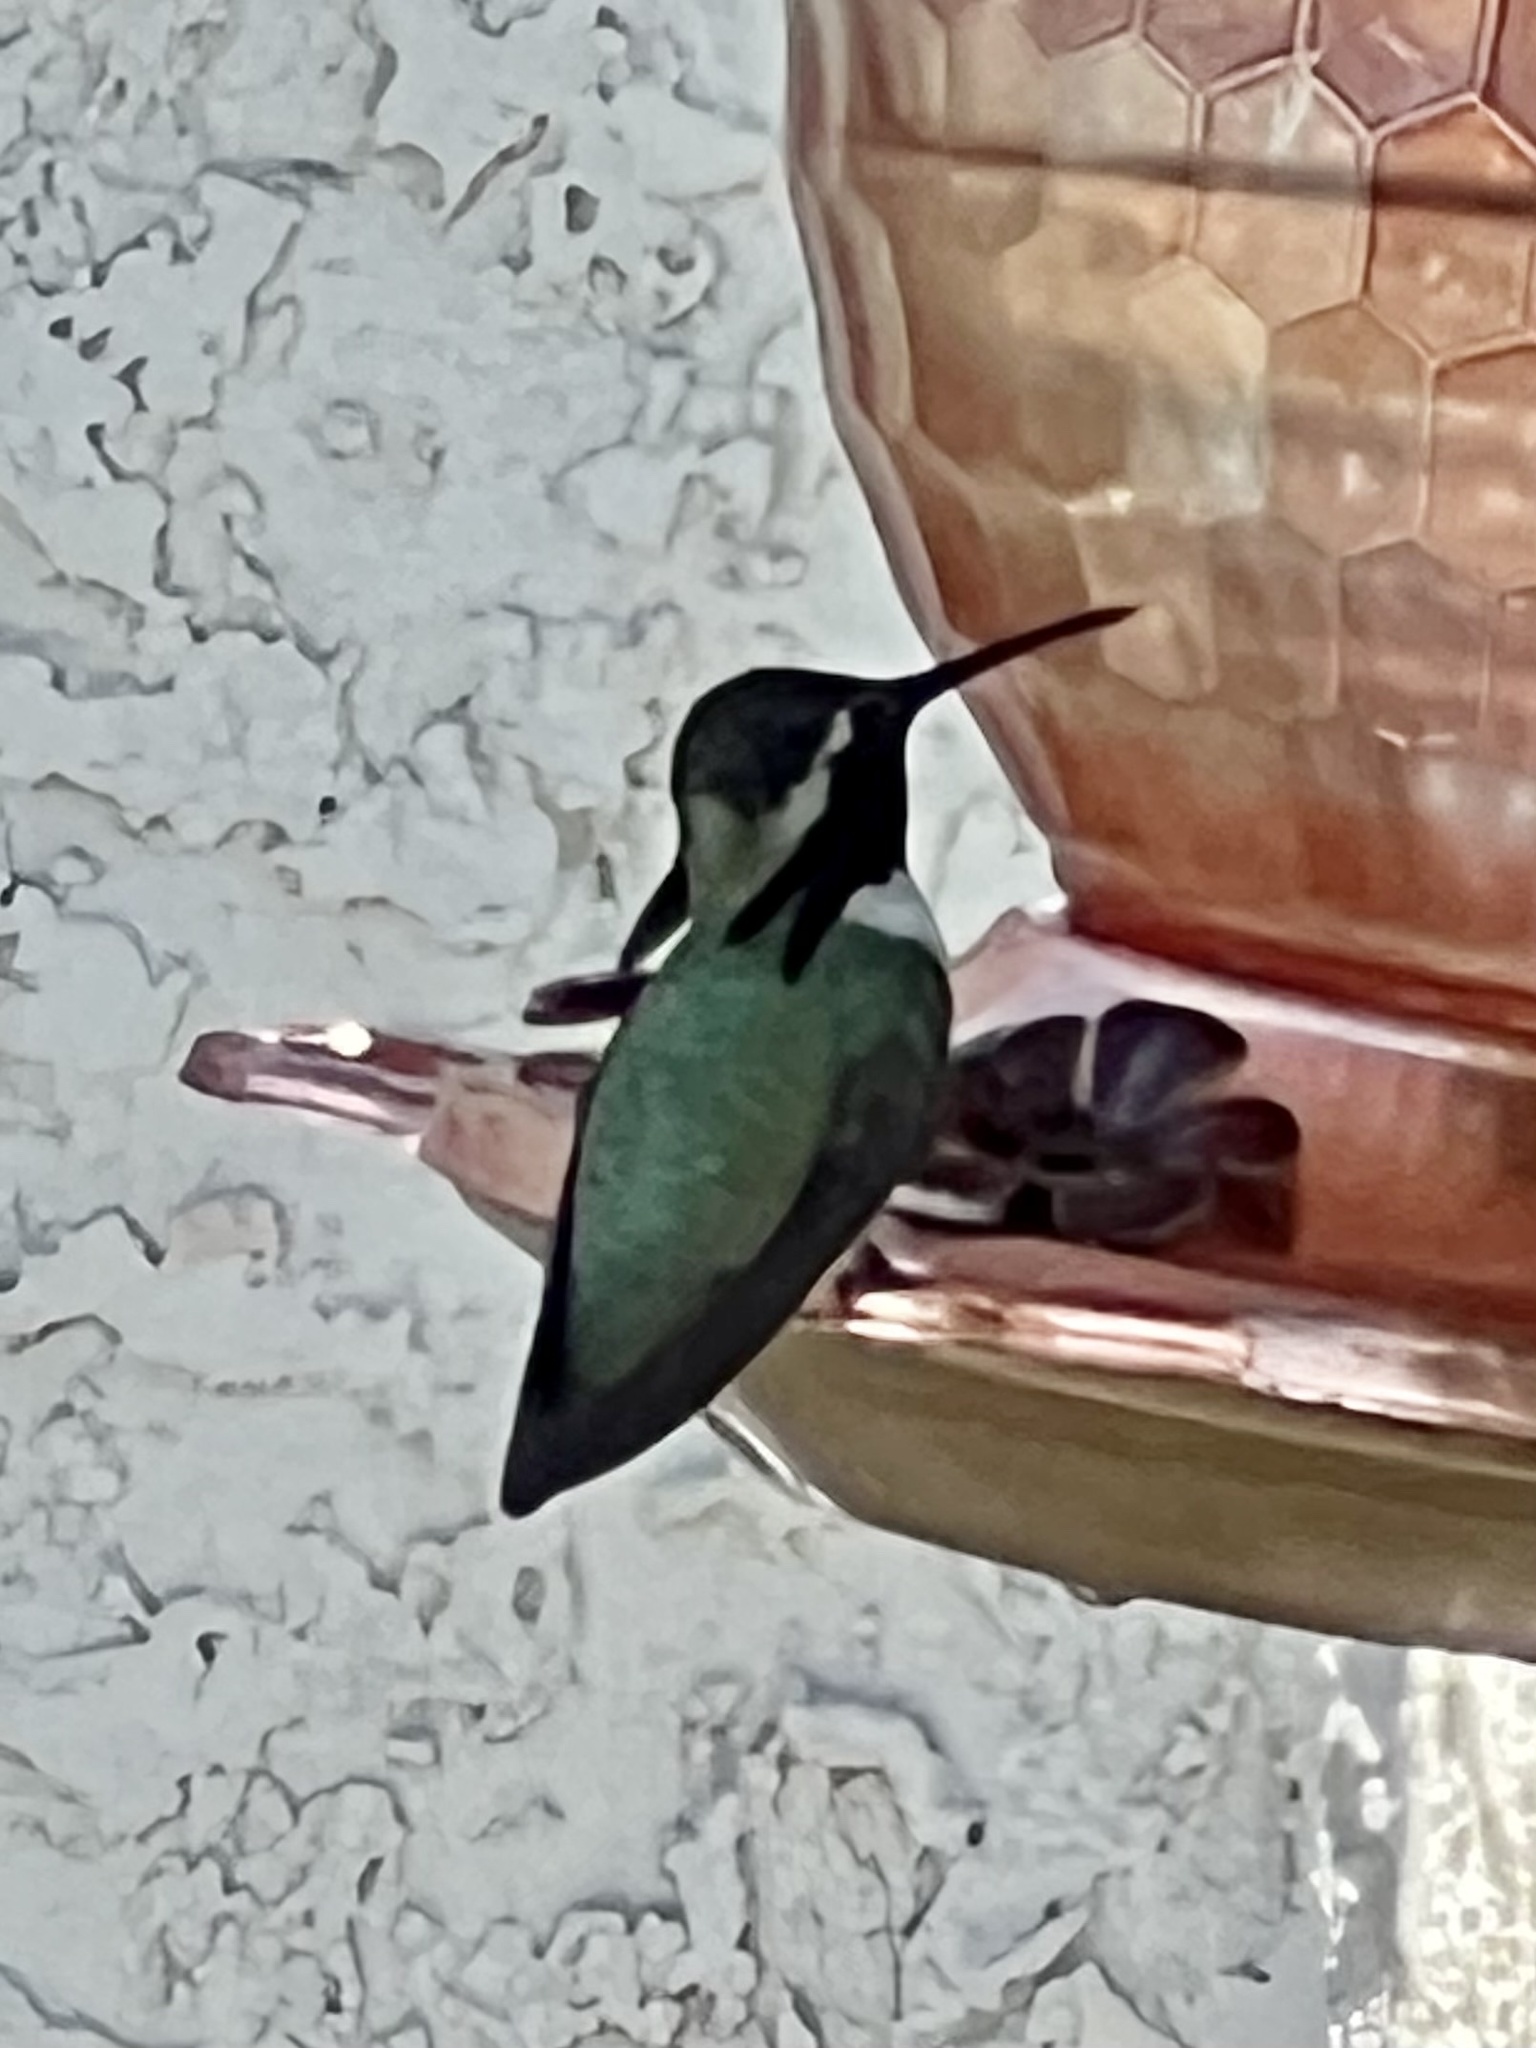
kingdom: Animalia
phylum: Chordata
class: Aves
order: Apodiformes
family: Trochilidae
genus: Calypte
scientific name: Calypte costae
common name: Costa's hummingbird
